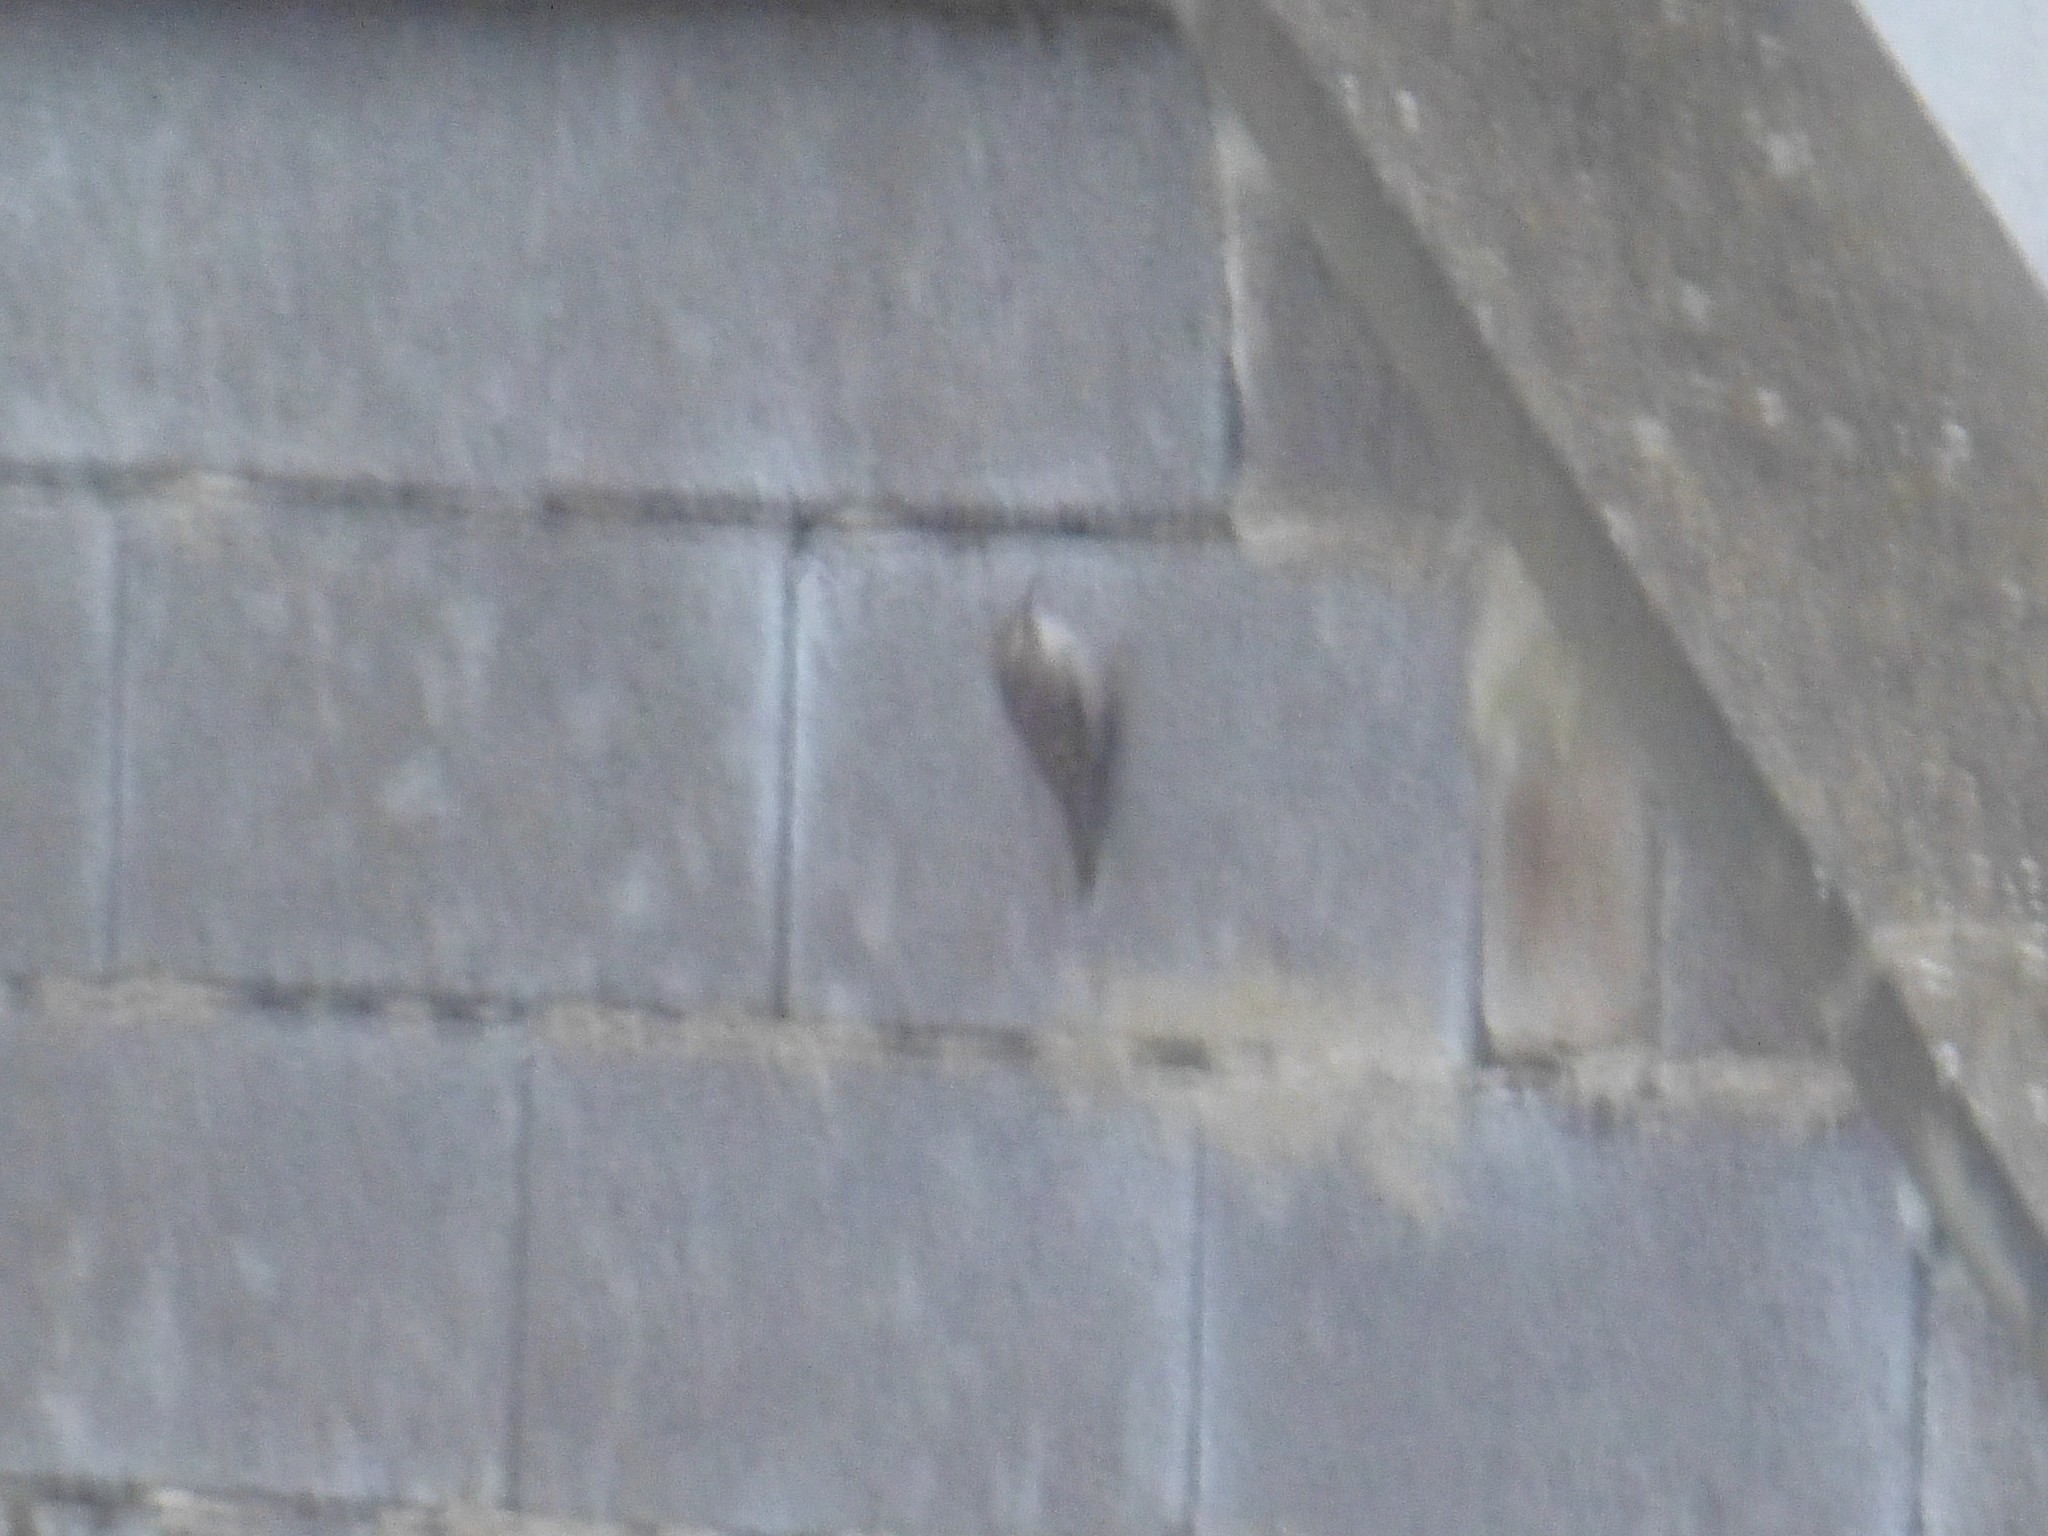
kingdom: Animalia
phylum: Chordata
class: Aves
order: Passeriformes
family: Certhiidae
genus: Certhia
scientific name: Certhia brachydactyla
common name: Short-toed treecreeper
